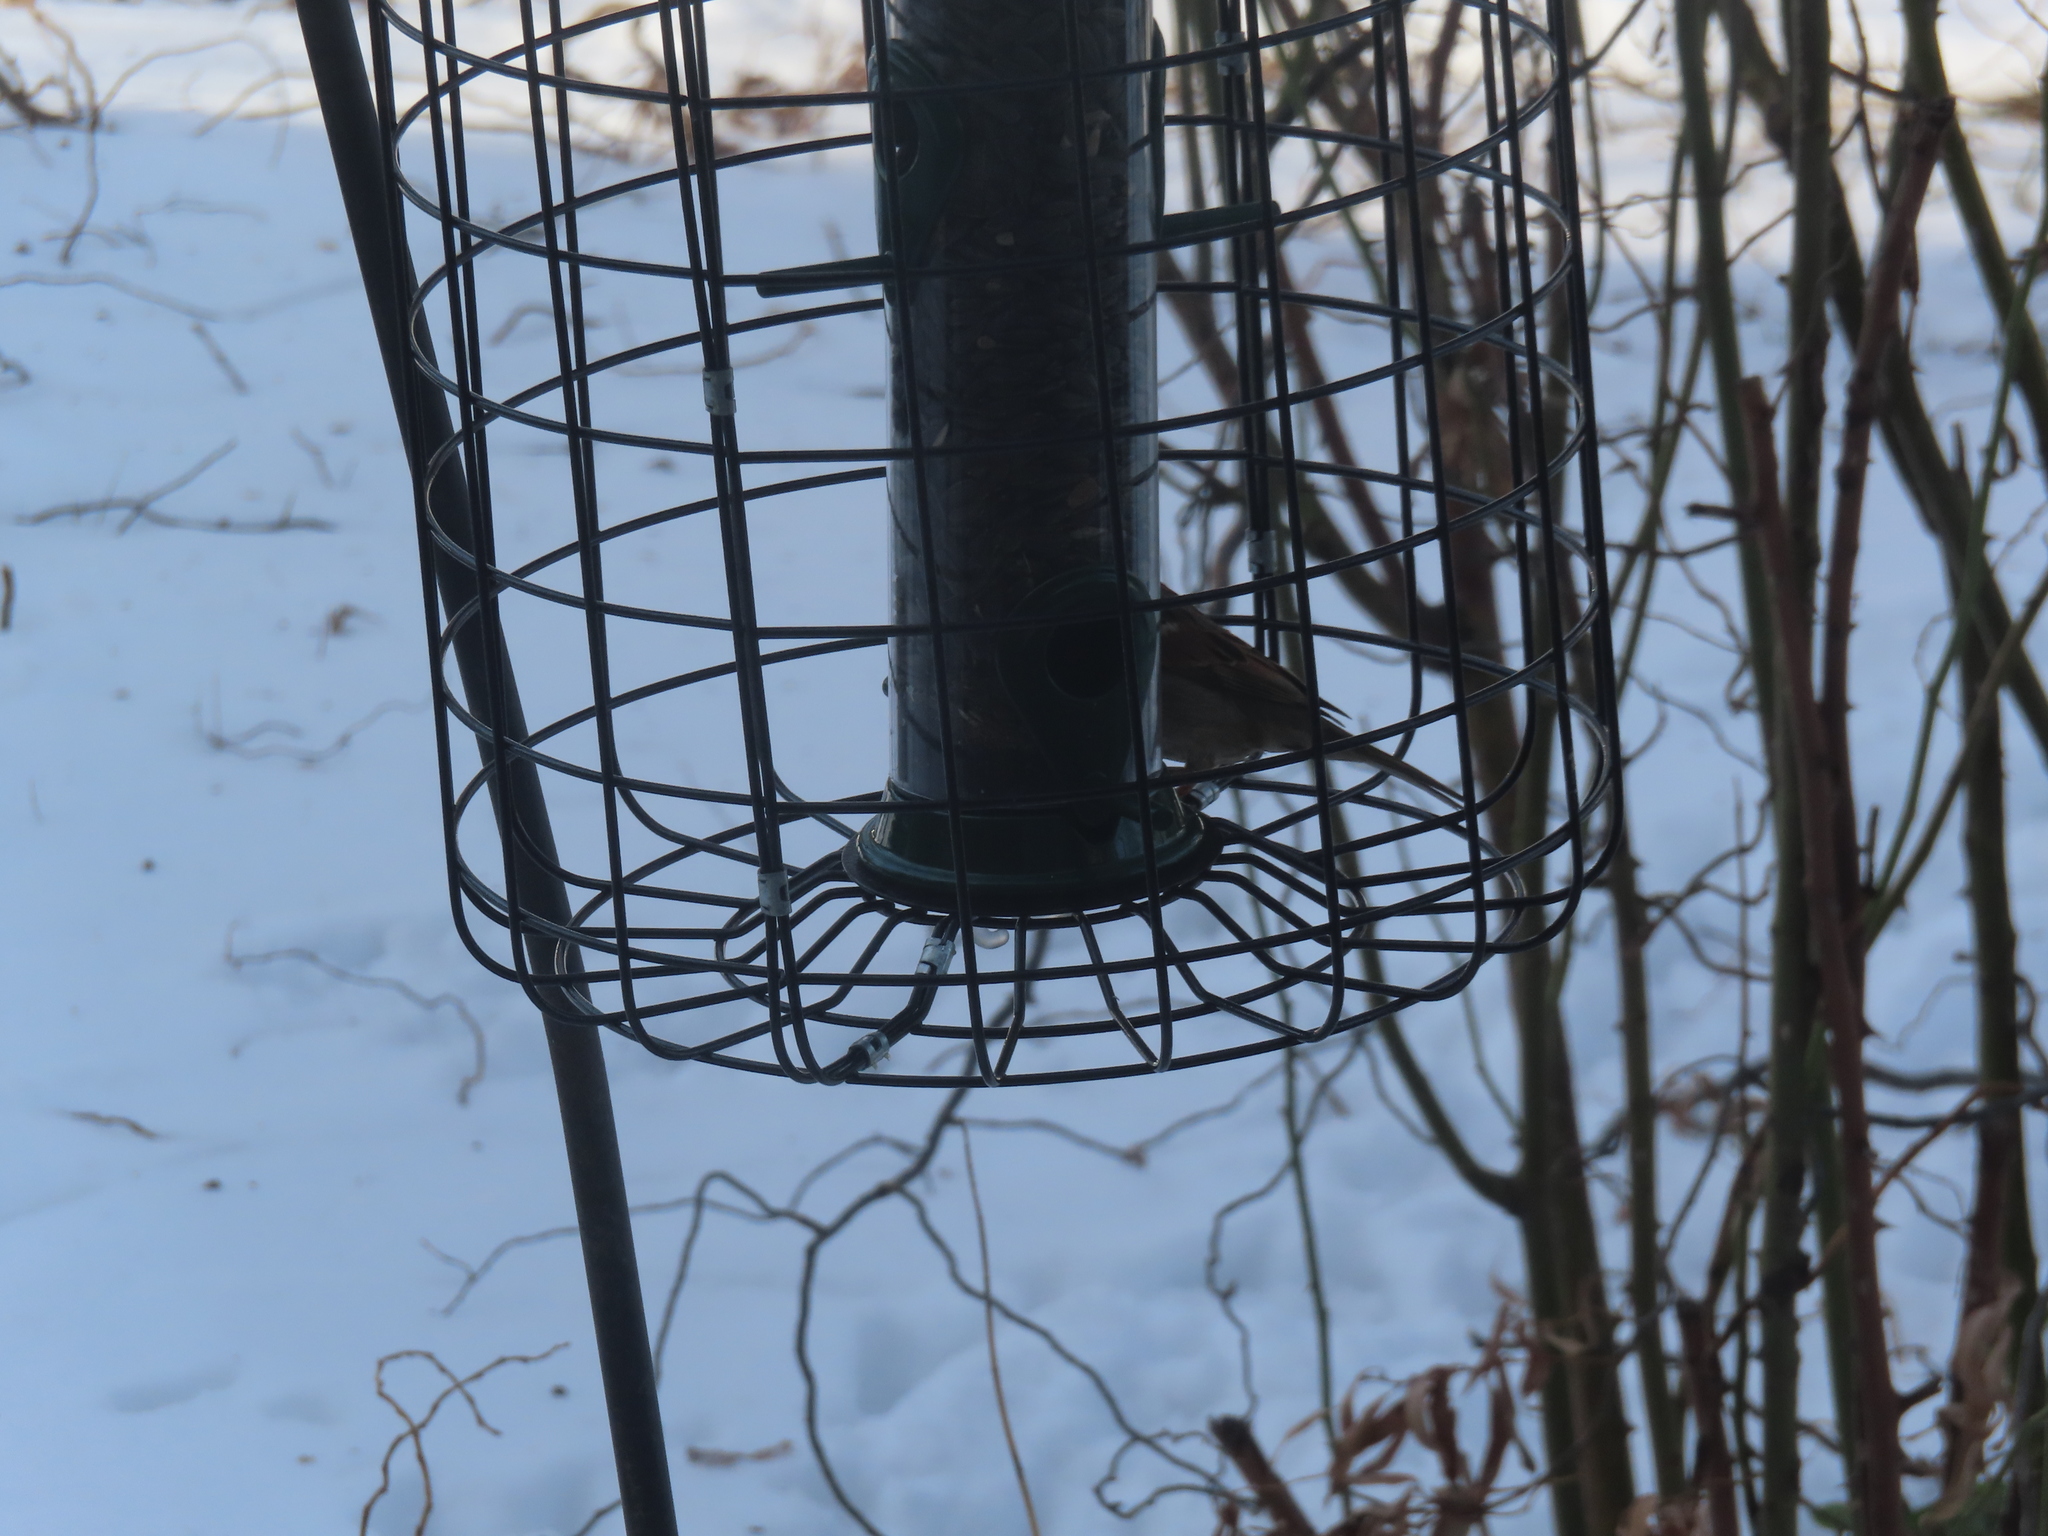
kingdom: Animalia
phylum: Chordata
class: Aves
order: Passeriformes
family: Passeridae
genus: Passer
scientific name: Passer domesticus
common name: House sparrow
